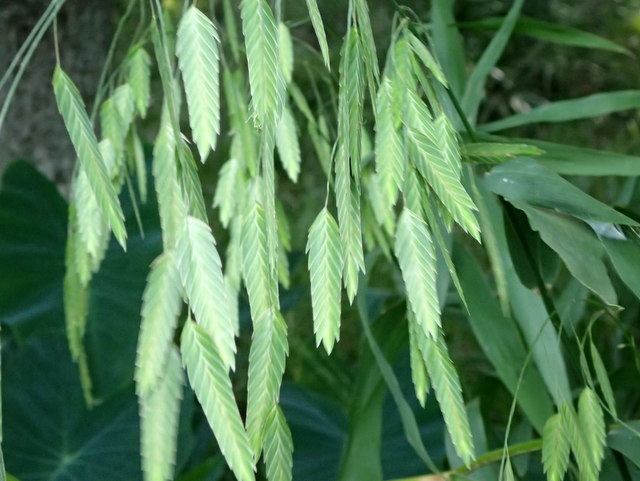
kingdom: Plantae
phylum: Tracheophyta
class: Liliopsida
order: Poales
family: Poaceae
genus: Chasmanthium
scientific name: Chasmanthium latifolium
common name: Broad-leaved chasmanthium
